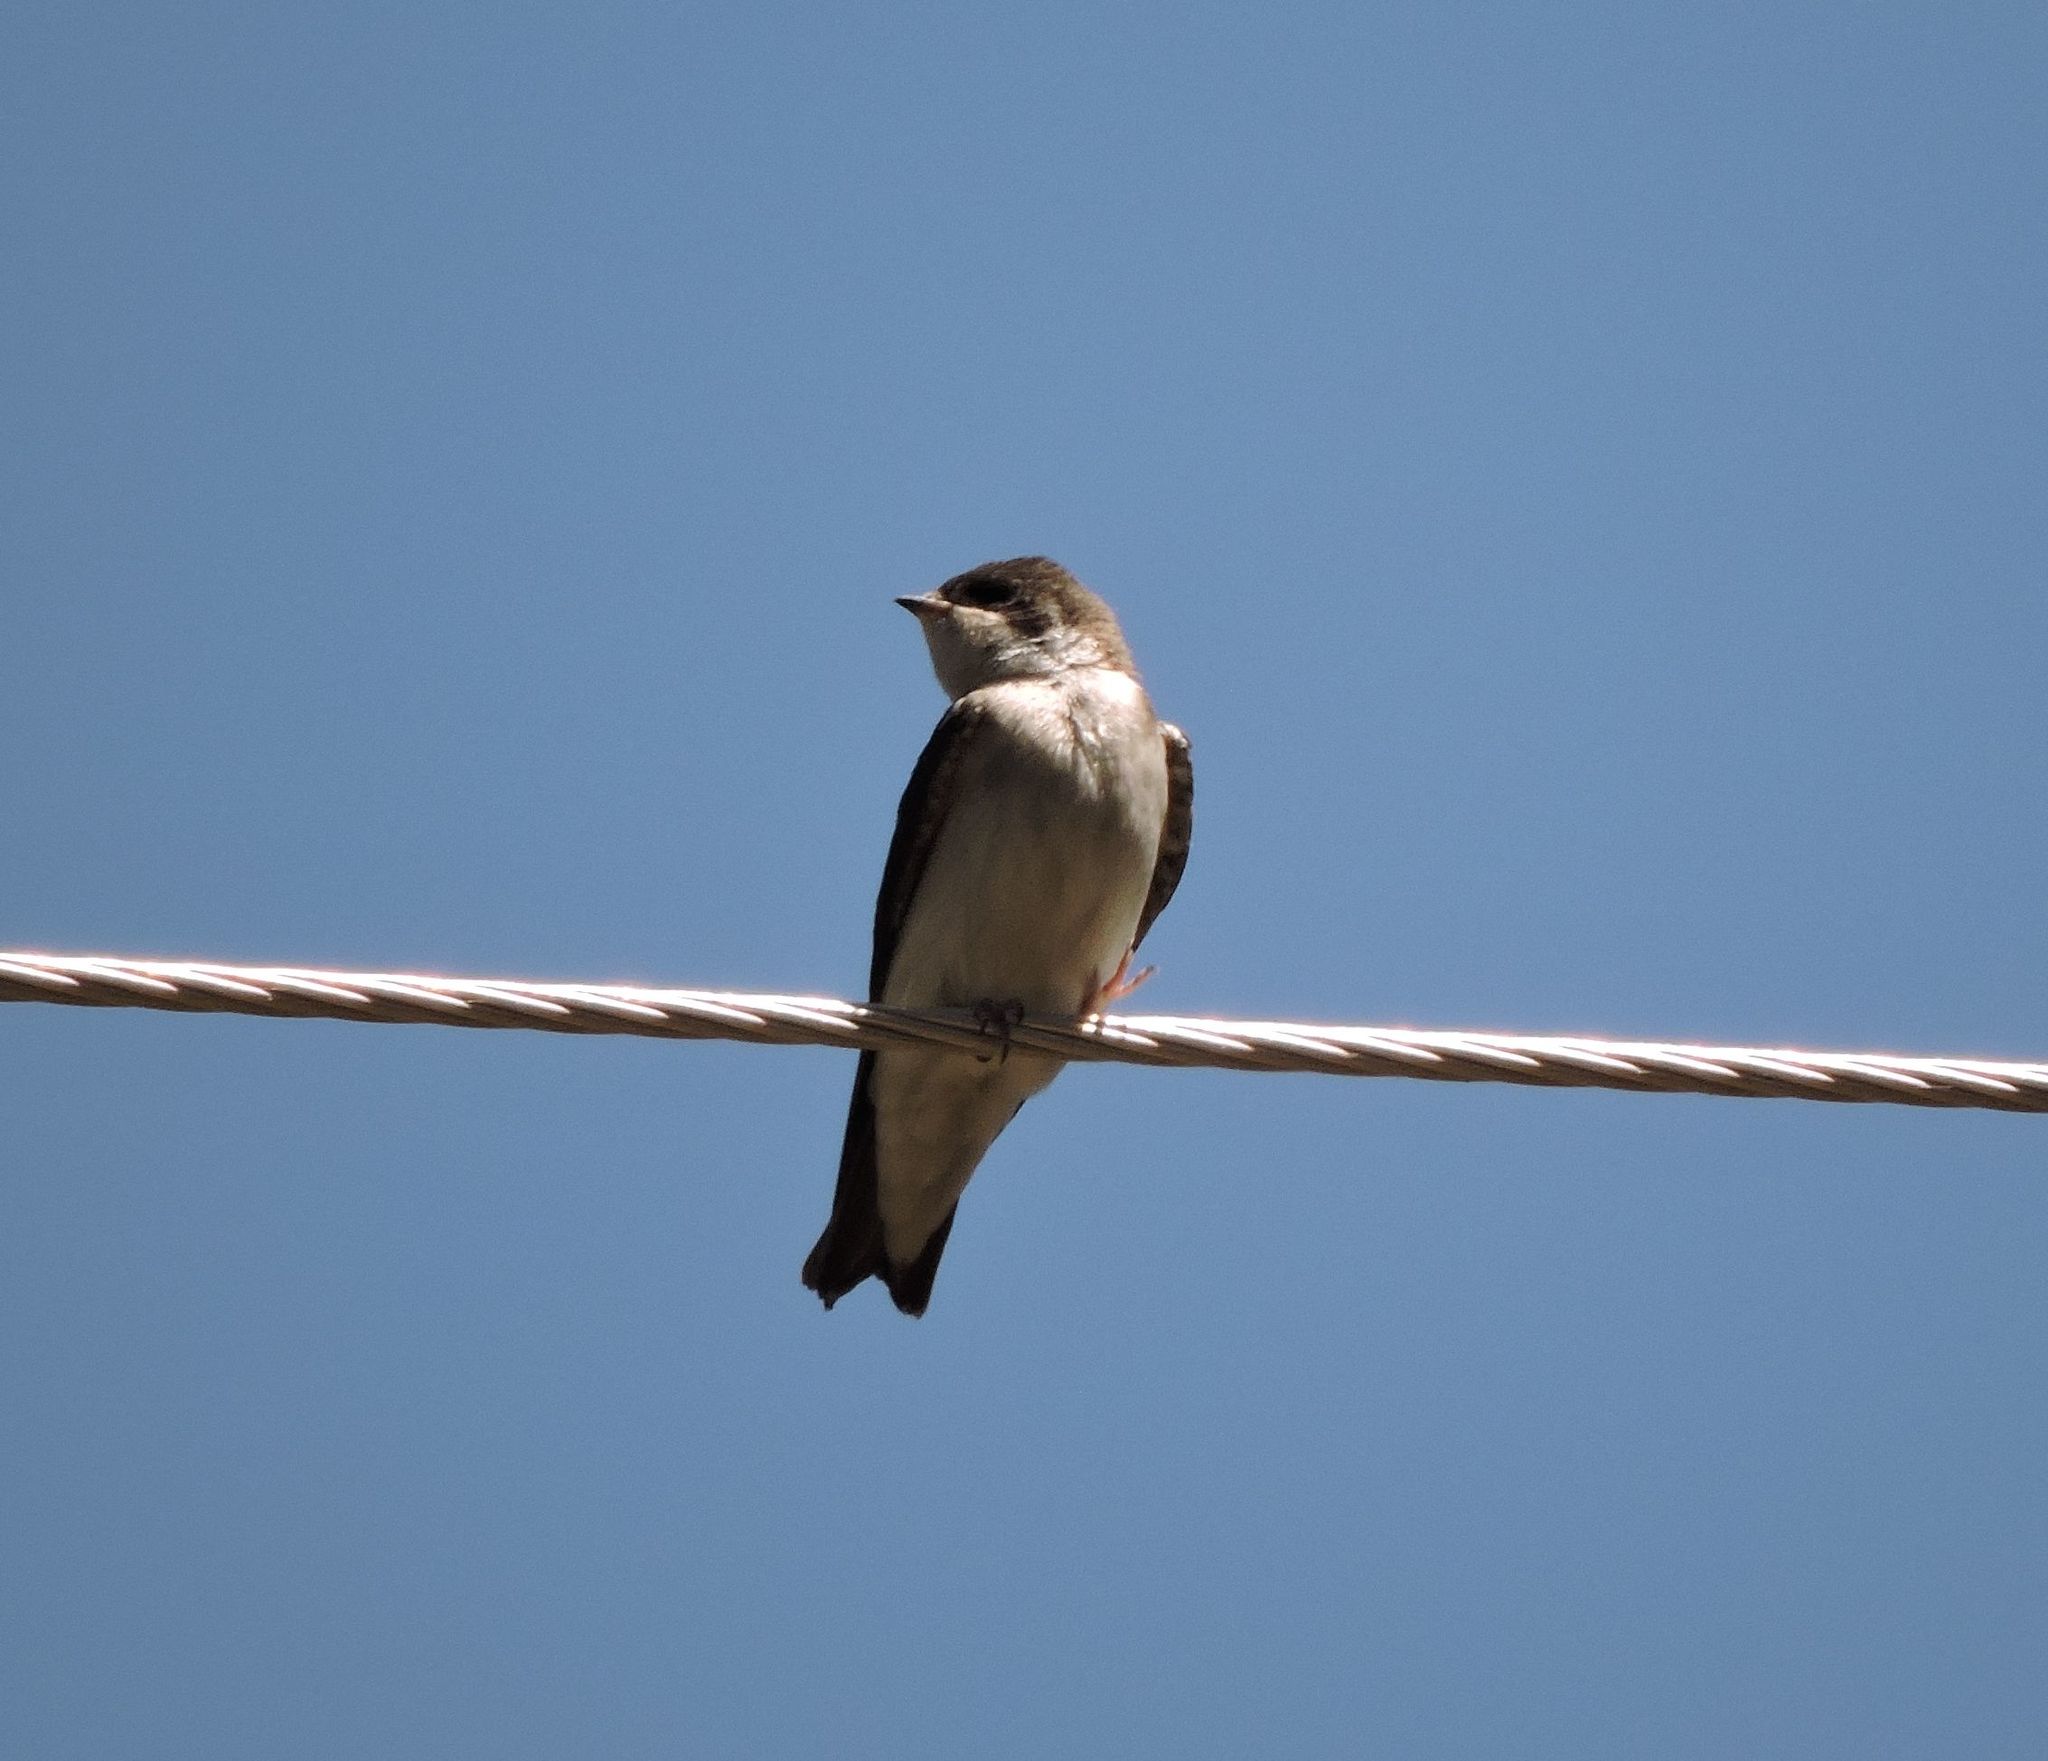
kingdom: Animalia
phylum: Chordata
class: Aves
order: Passeriformes
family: Hirundinidae
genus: Tachycineta
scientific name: Tachycineta bicolor
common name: Tree swallow
